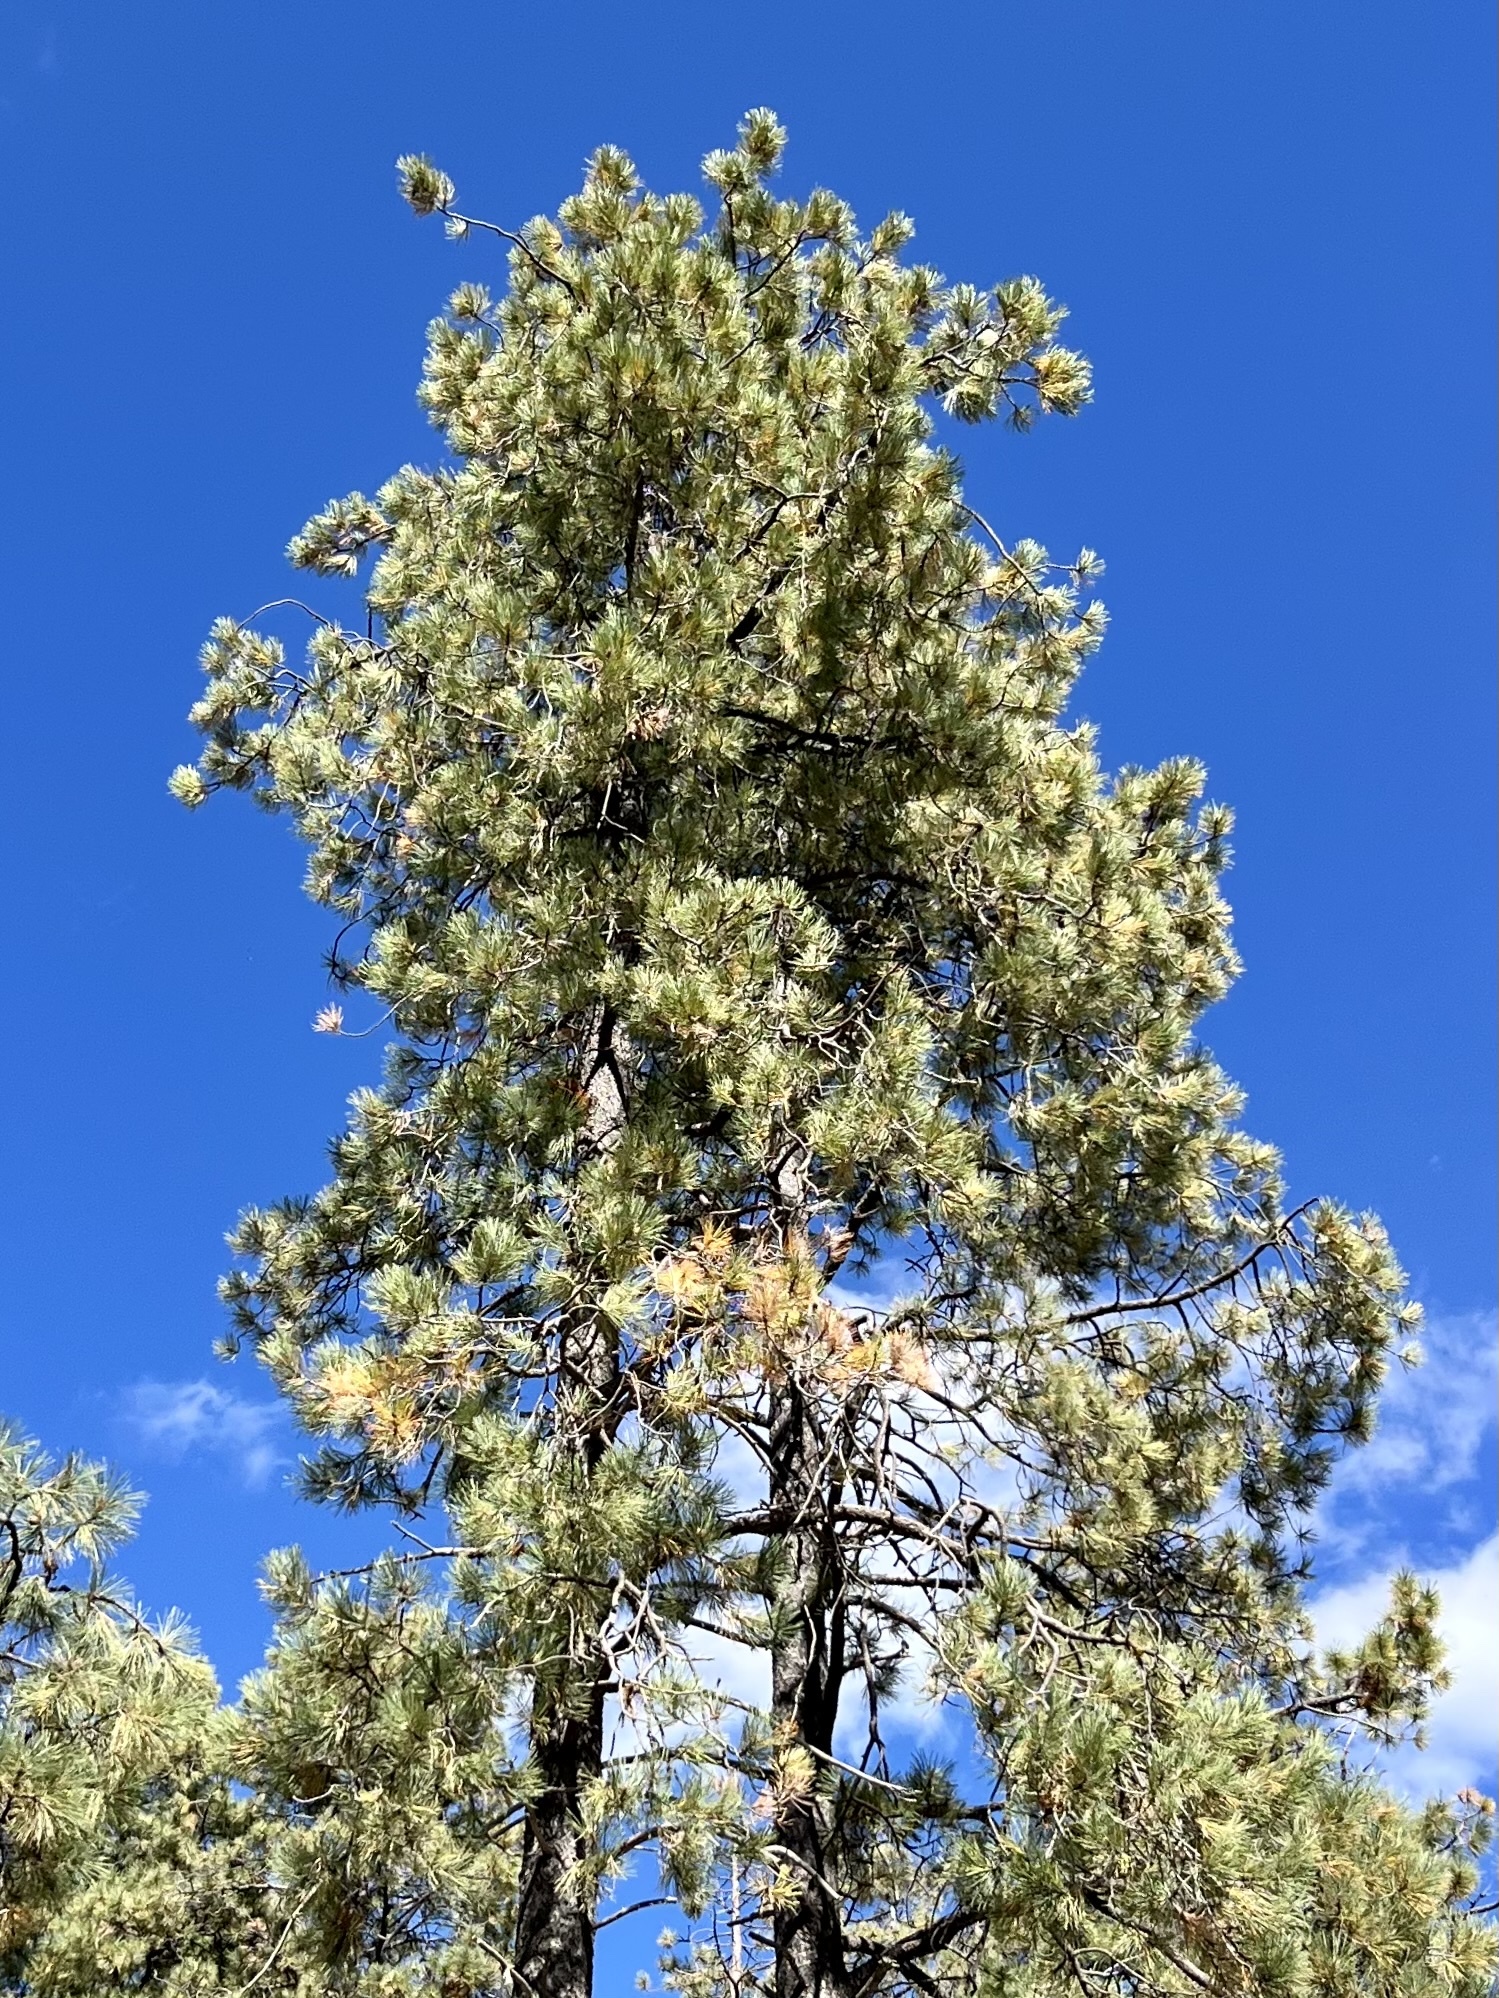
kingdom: Plantae
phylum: Tracheophyta
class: Pinopsida
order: Pinales
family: Pinaceae
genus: Pinus
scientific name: Pinus ponderosa
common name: Western yellow-pine
